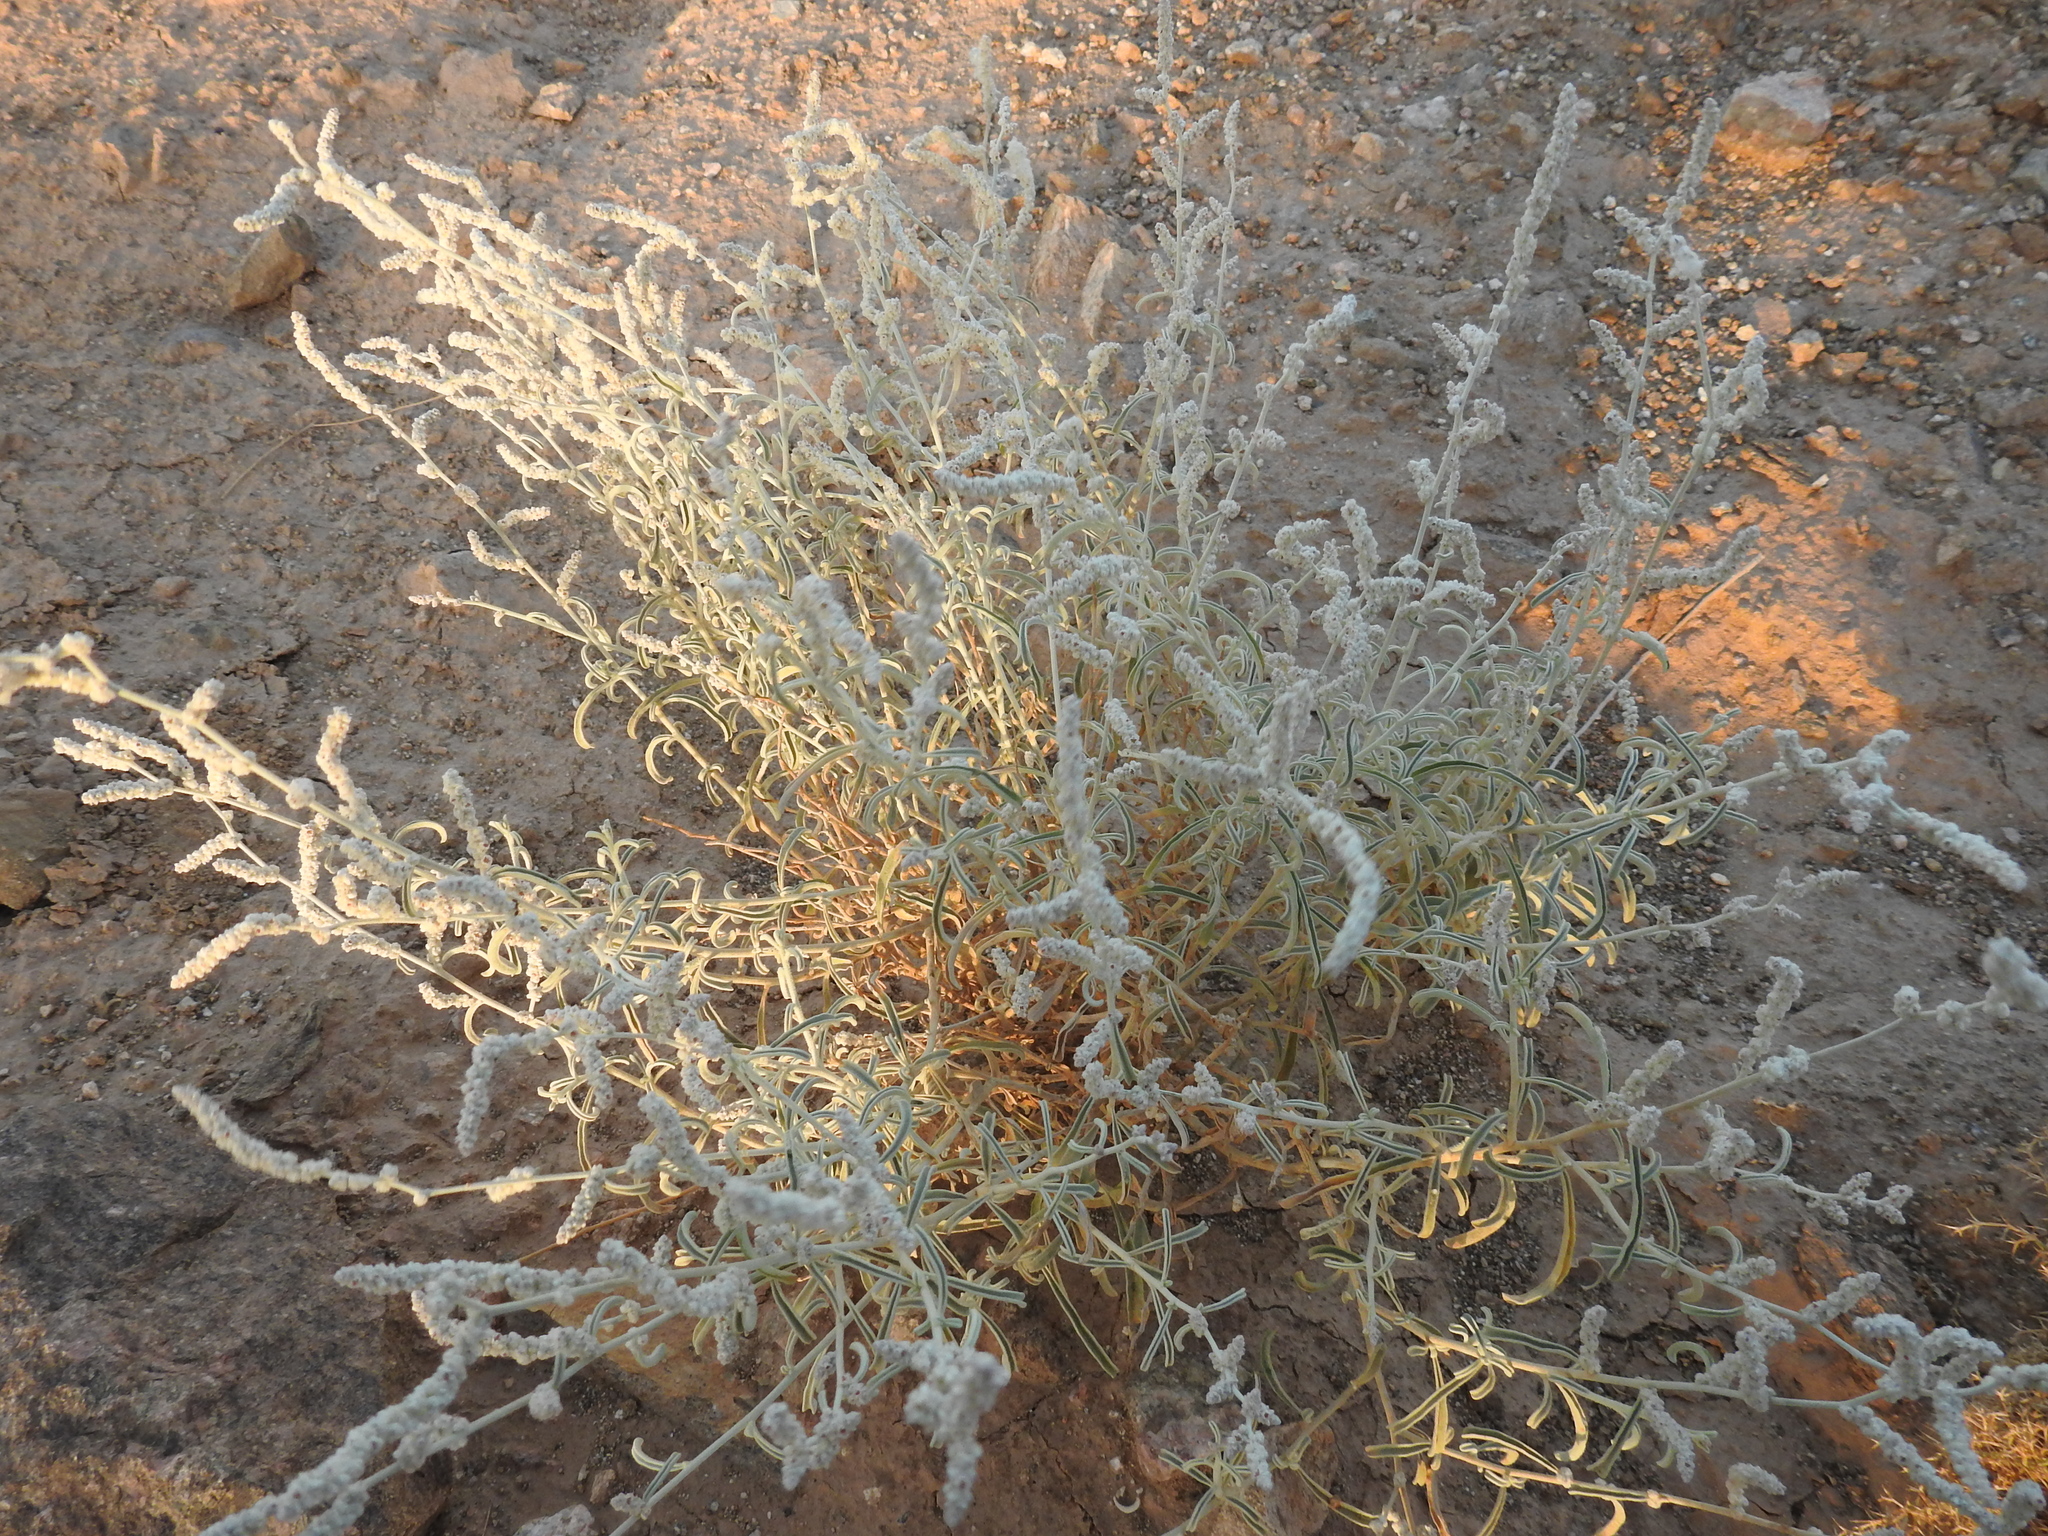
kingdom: Plantae
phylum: Tracheophyta
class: Magnoliopsida
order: Caryophyllales
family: Amaranthaceae
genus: Aerva
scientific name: Aerva javanica
